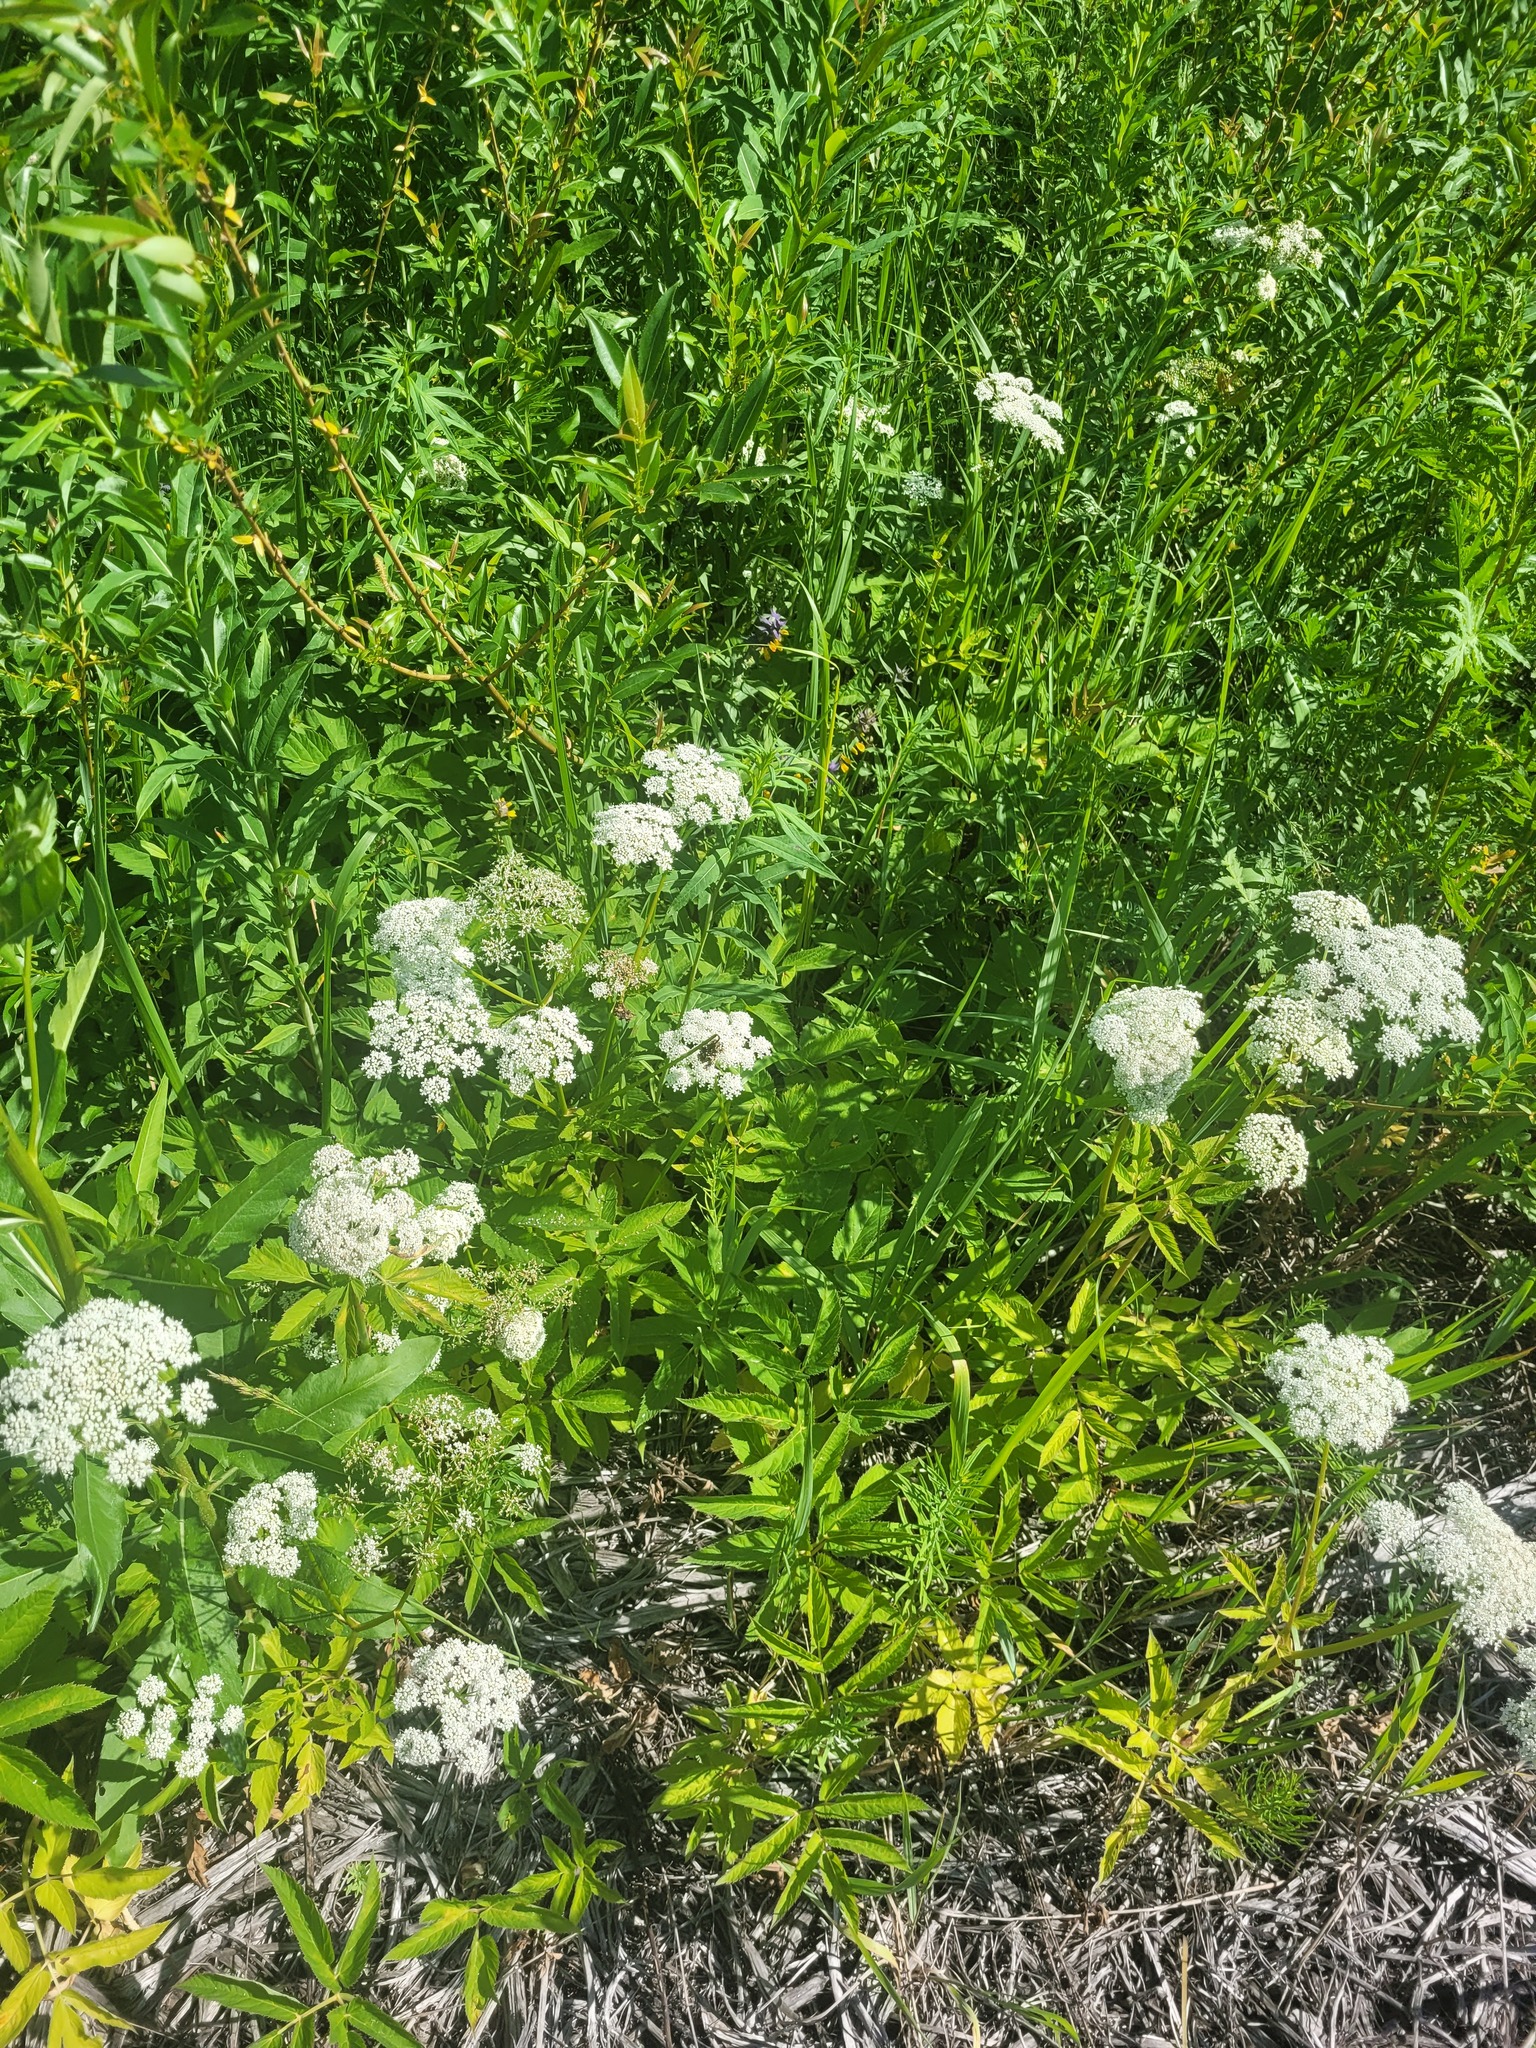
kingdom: Plantae
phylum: Tracheophyta
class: Magnoliopsida
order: Apiales
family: Apiaceae
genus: Aegopodium
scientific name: Aegopodium podagraria
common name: Ground-elder
